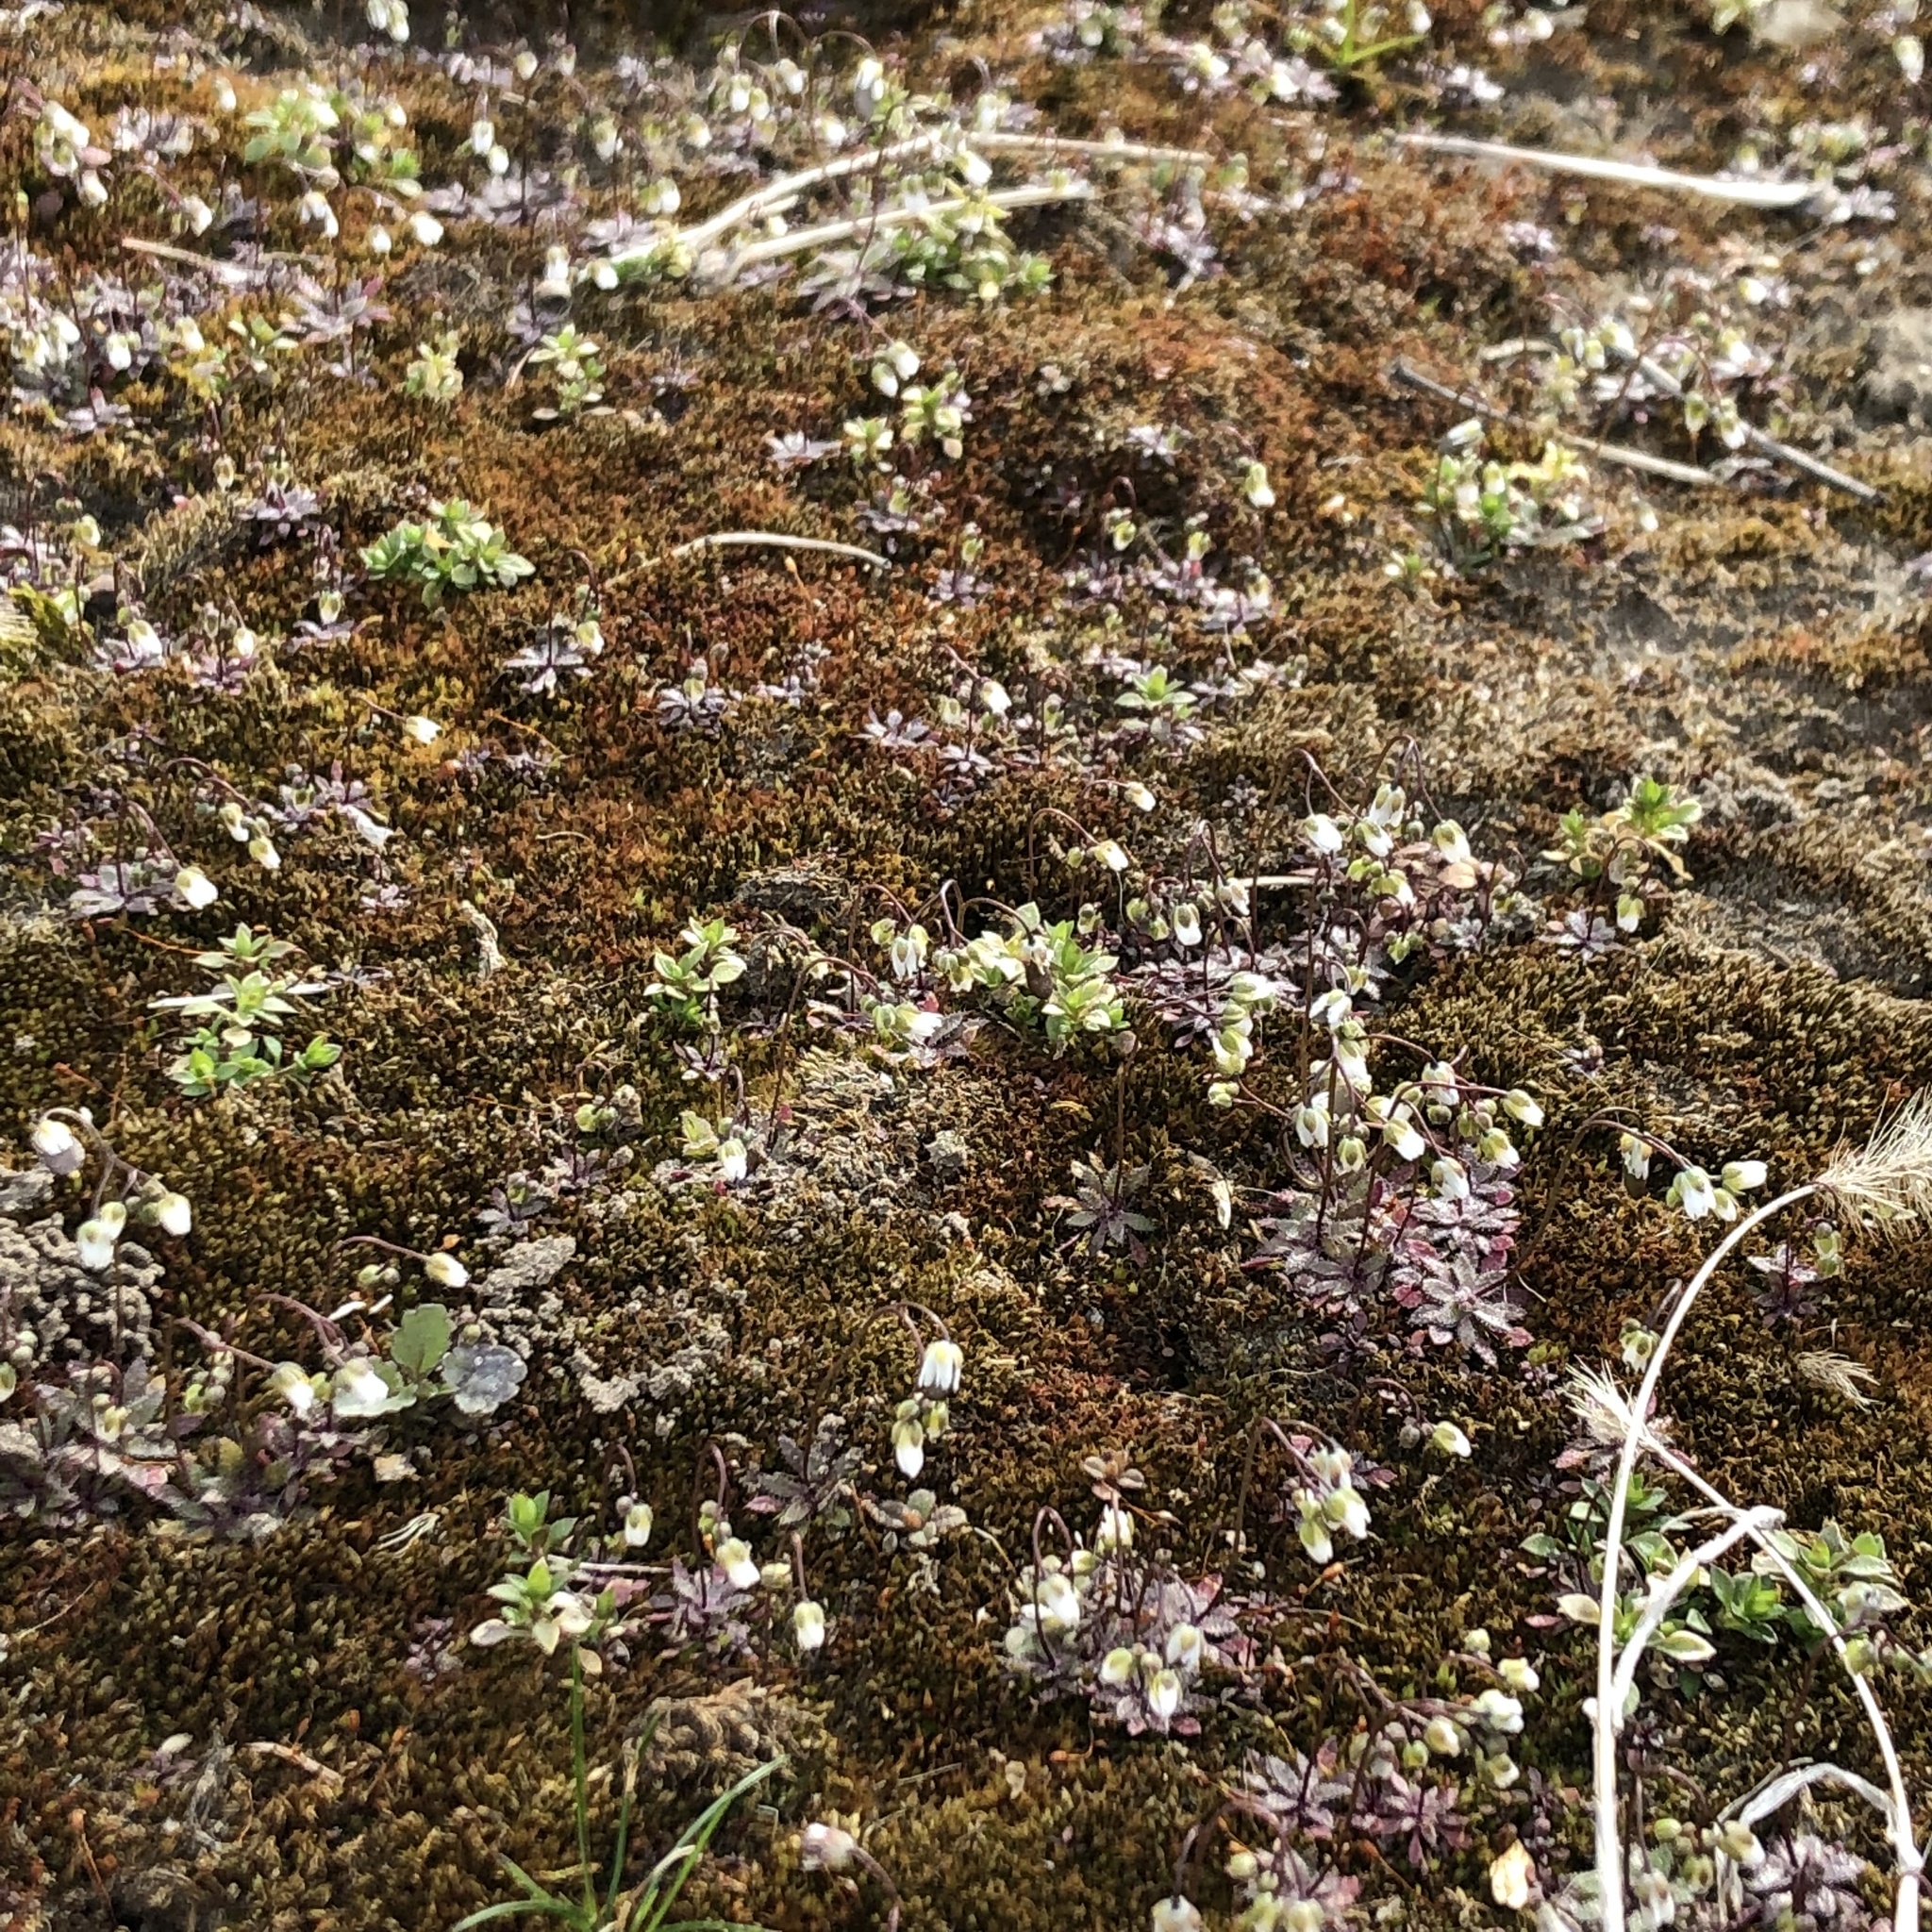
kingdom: Plantae
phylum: Tracheophyta
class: Magnoliopsida
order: Brassicales
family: Brassicaceae
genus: Draba
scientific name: Draba verna
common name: Spring draba
